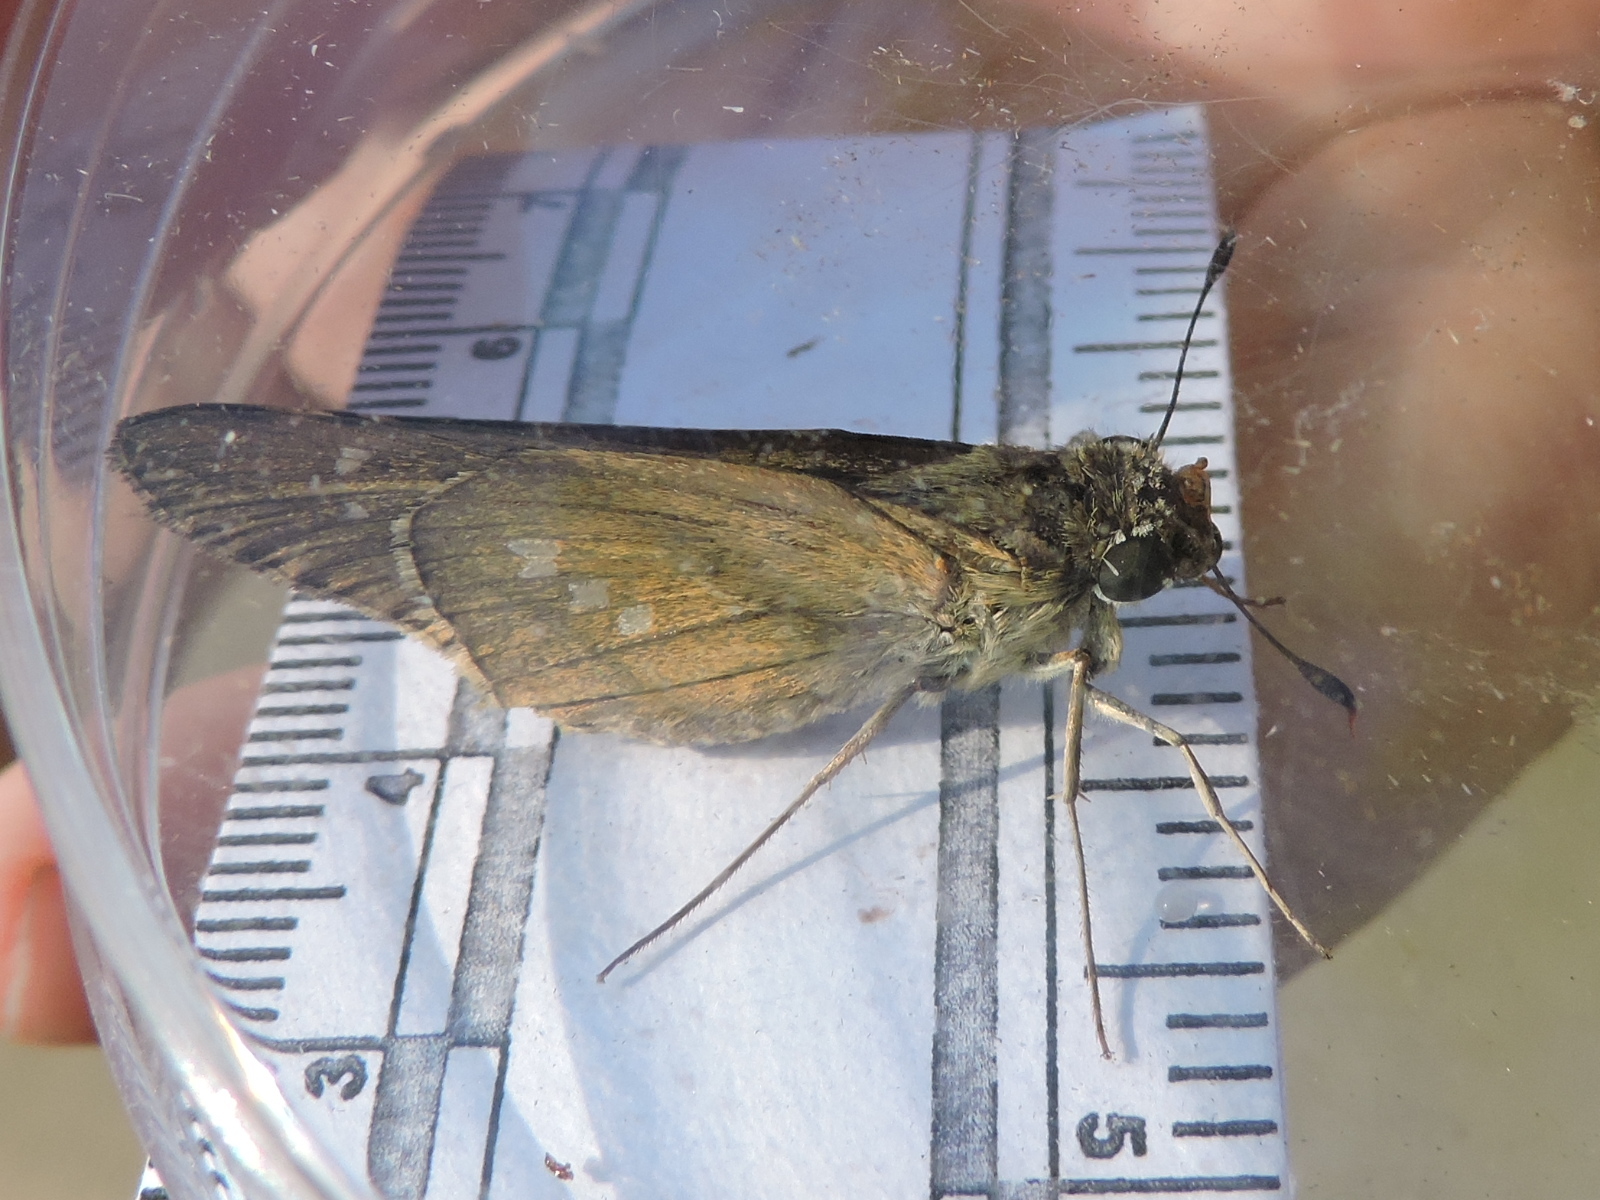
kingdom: Animalia
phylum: Arthropoda
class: Insecta
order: Lepidoptera
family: Hesperiidae
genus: Calpodes
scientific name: Calpodes ethlius
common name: Brazilian skipper
